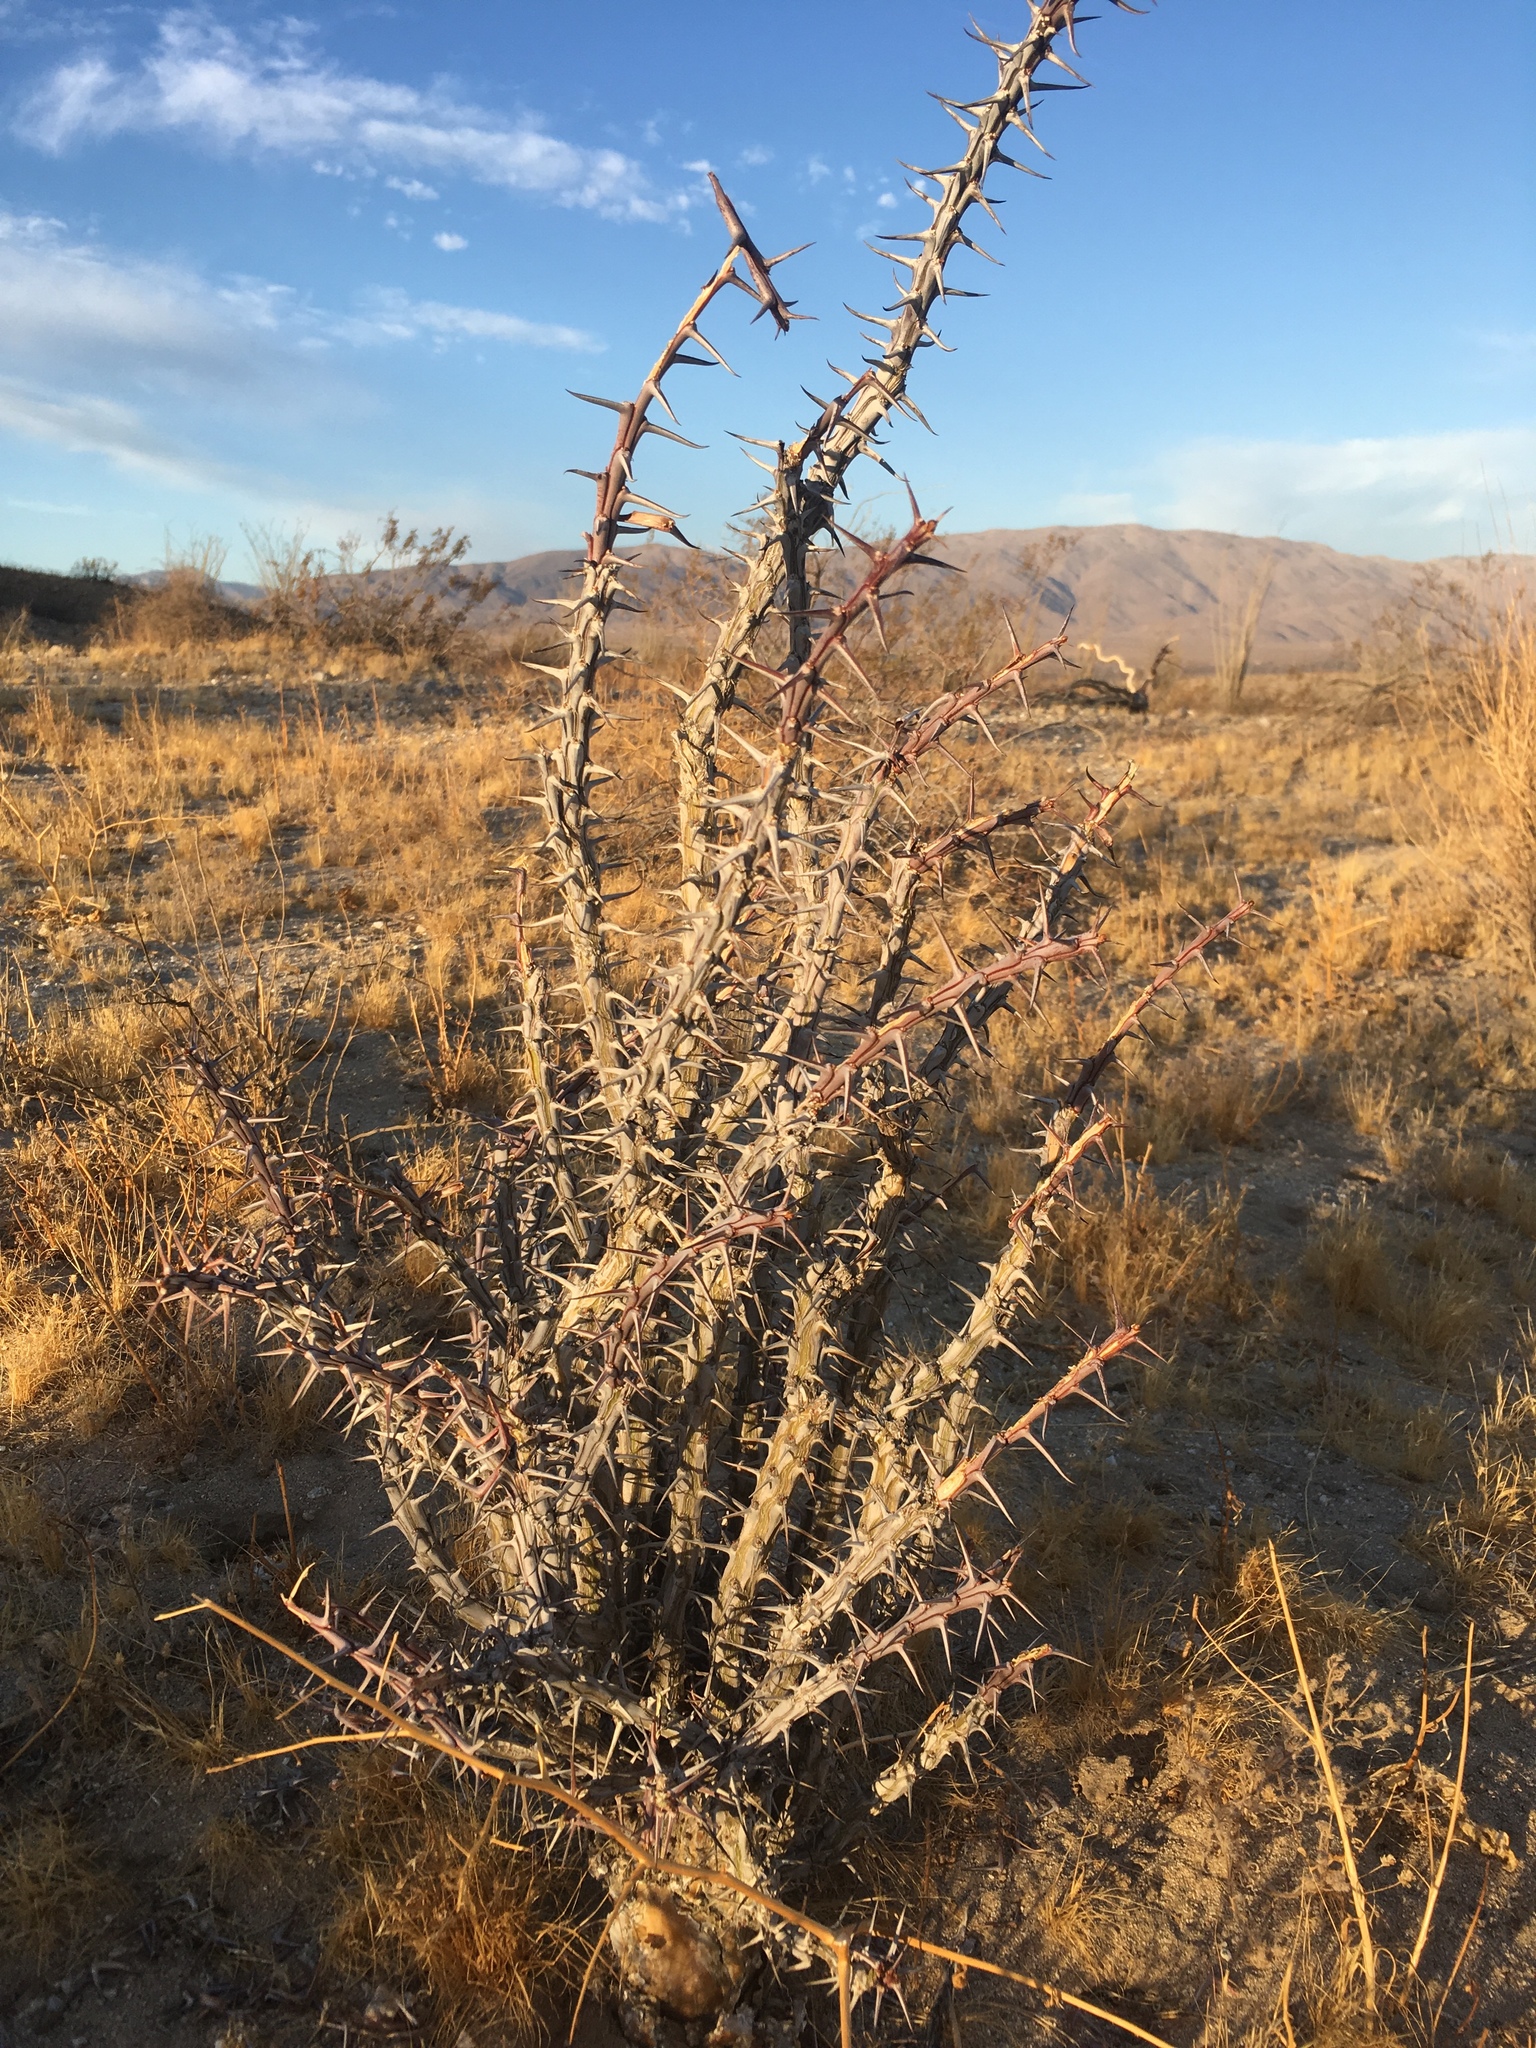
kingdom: Plantae
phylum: Tracheophyta
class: Magnoliopsida
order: Ericales
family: Fouquieriaceae
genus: Fouquieria
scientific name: Fouquieria splendens
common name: Vine-cactus
